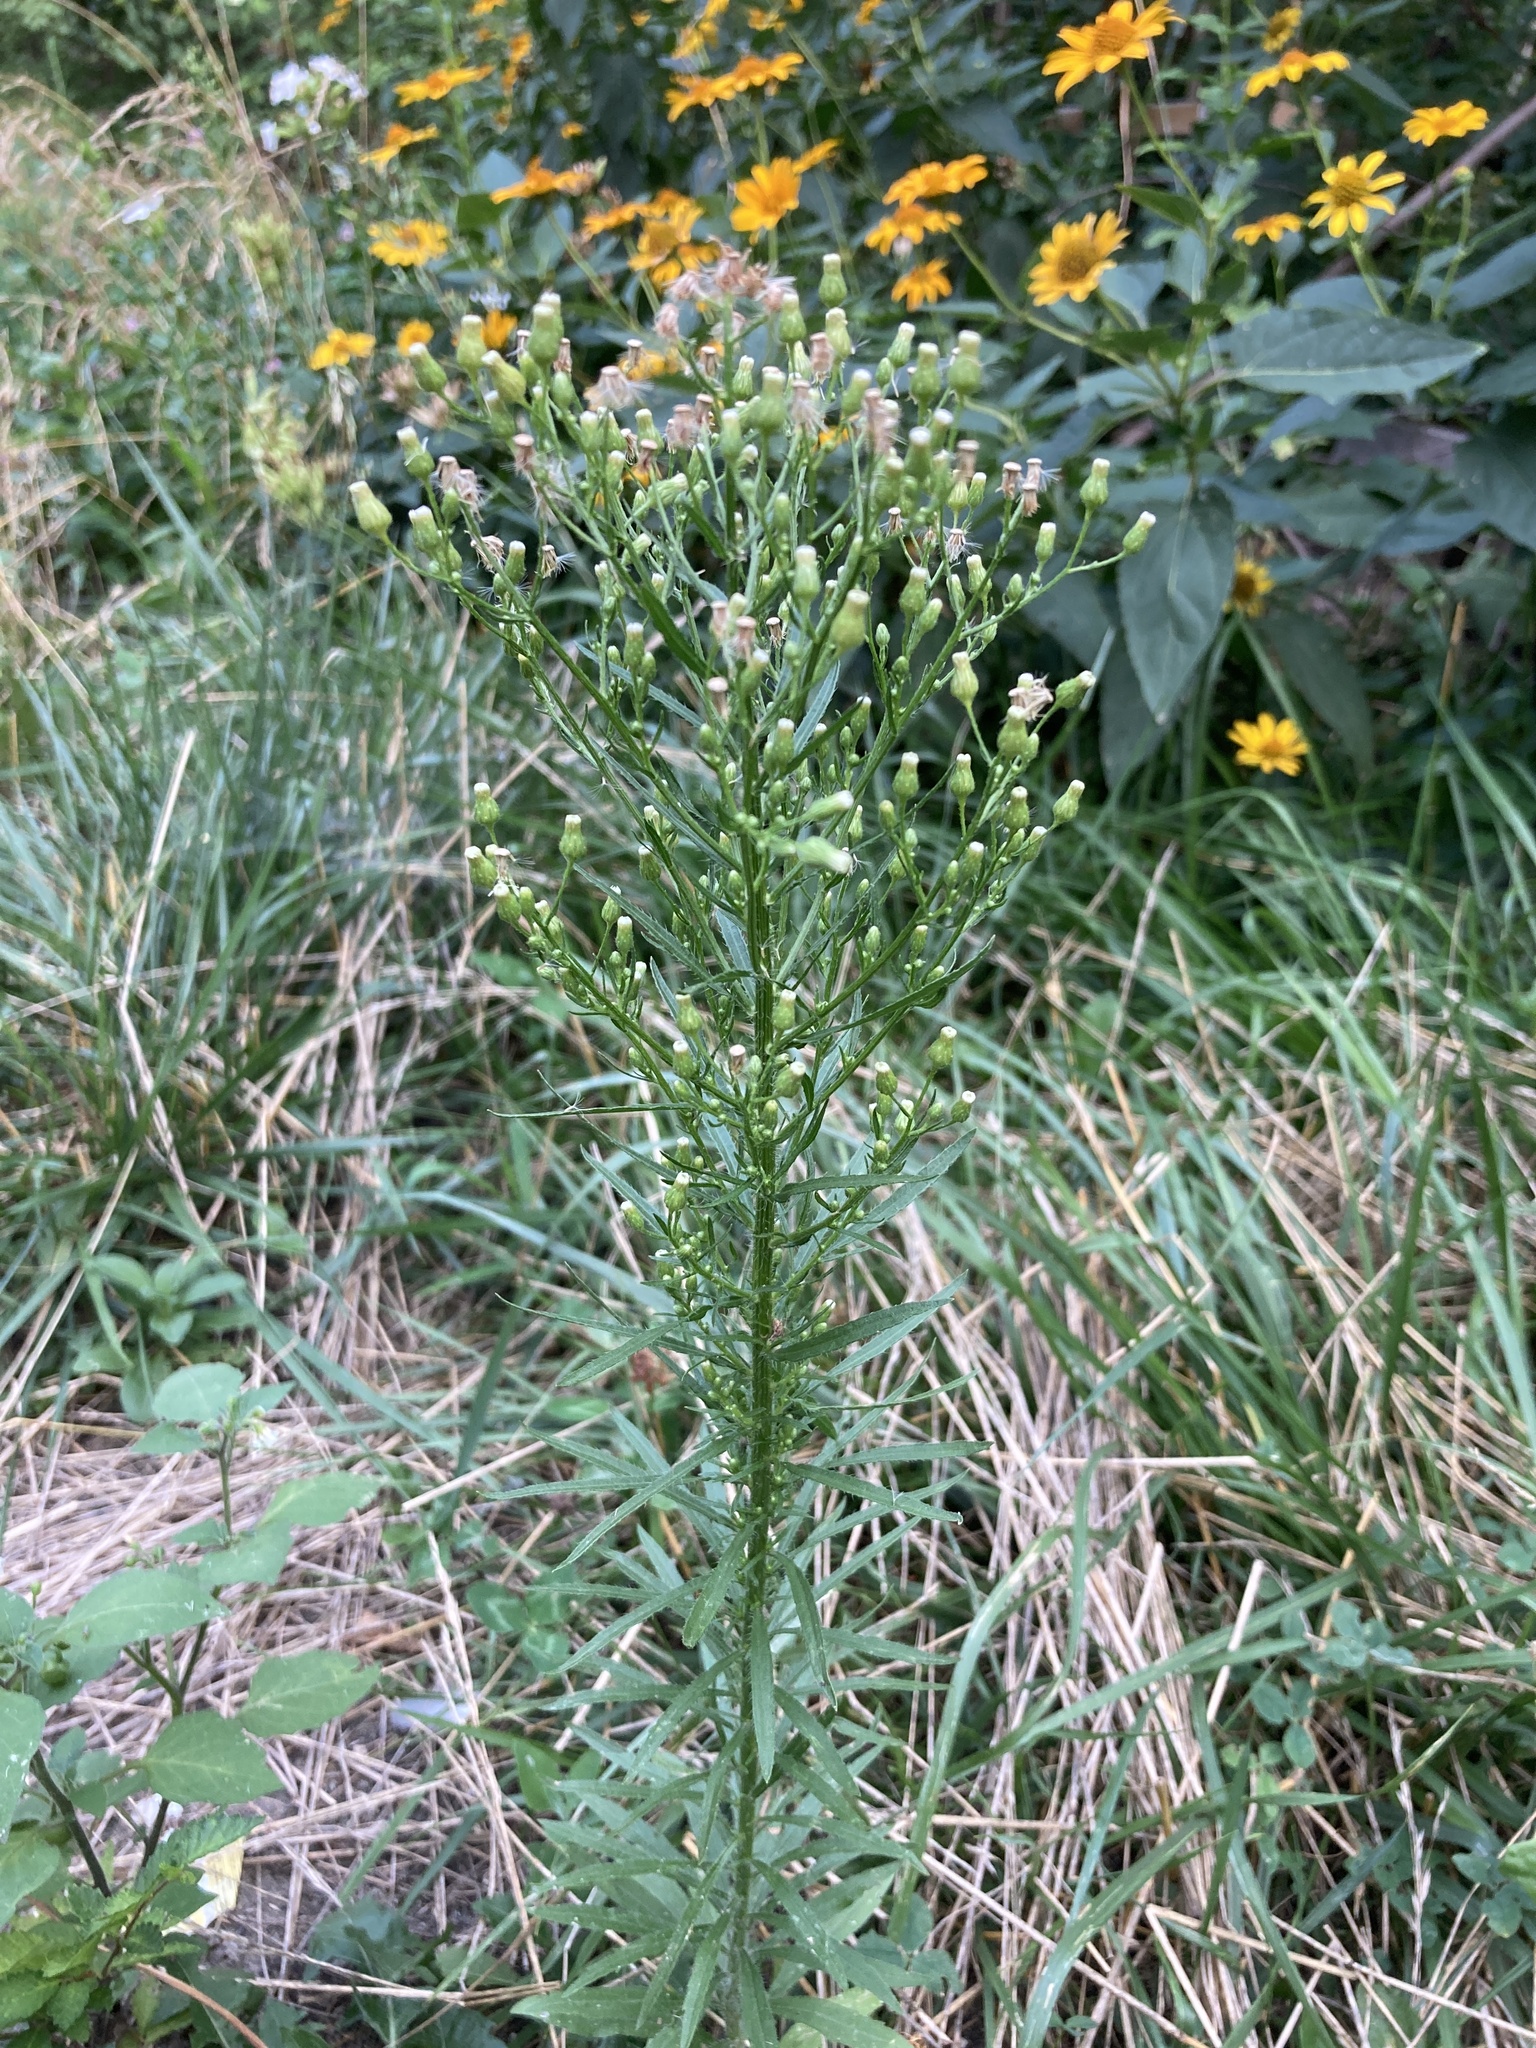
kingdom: Plantae
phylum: Tracheophyta
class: Magnoliopsida
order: Asterales
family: Asteraceae
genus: Erigeron
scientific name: Erigeron canadensis
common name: Canadian fleabane
